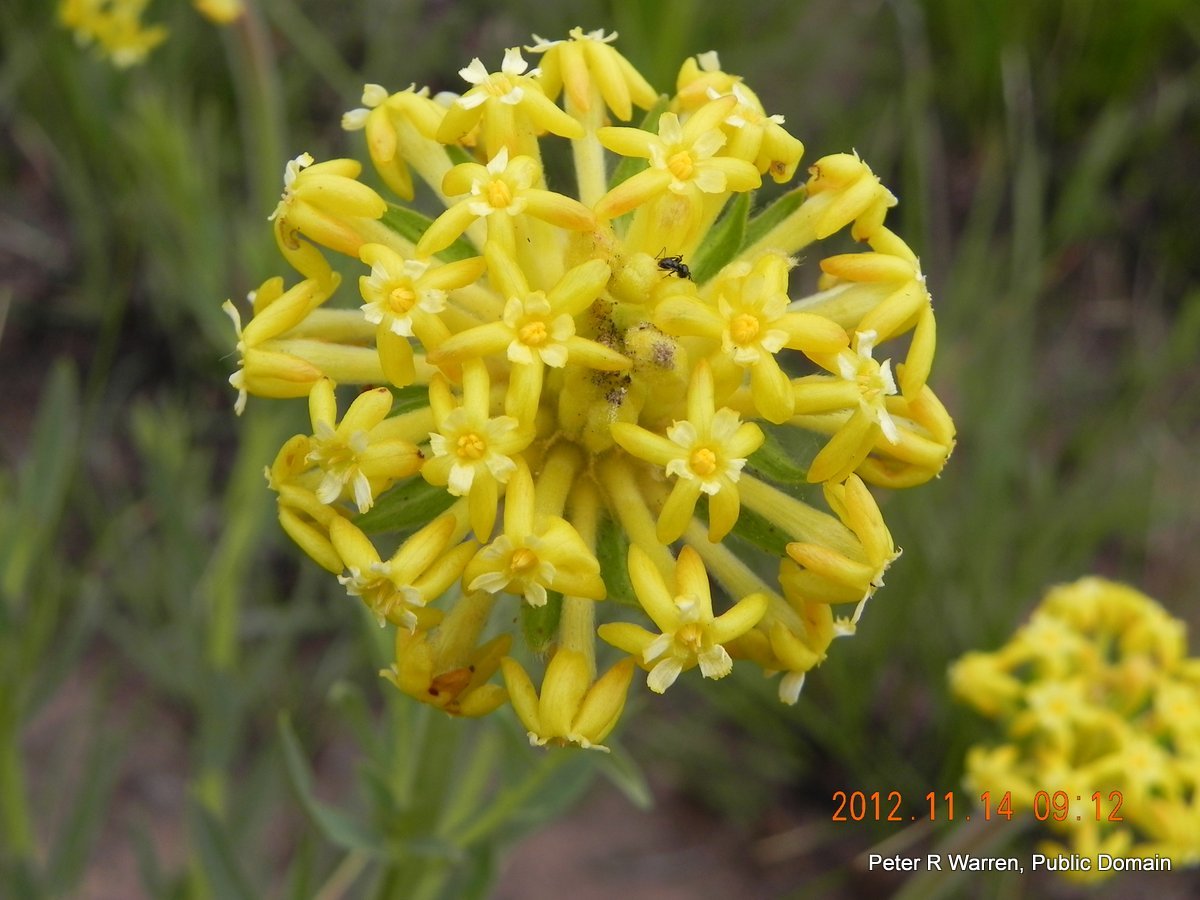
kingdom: Plantae
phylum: Tracheophyta
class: Magnoliopsida
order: Malvales
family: Thymelaeaceae
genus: Gnidia
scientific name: Gnidia kraussiana
